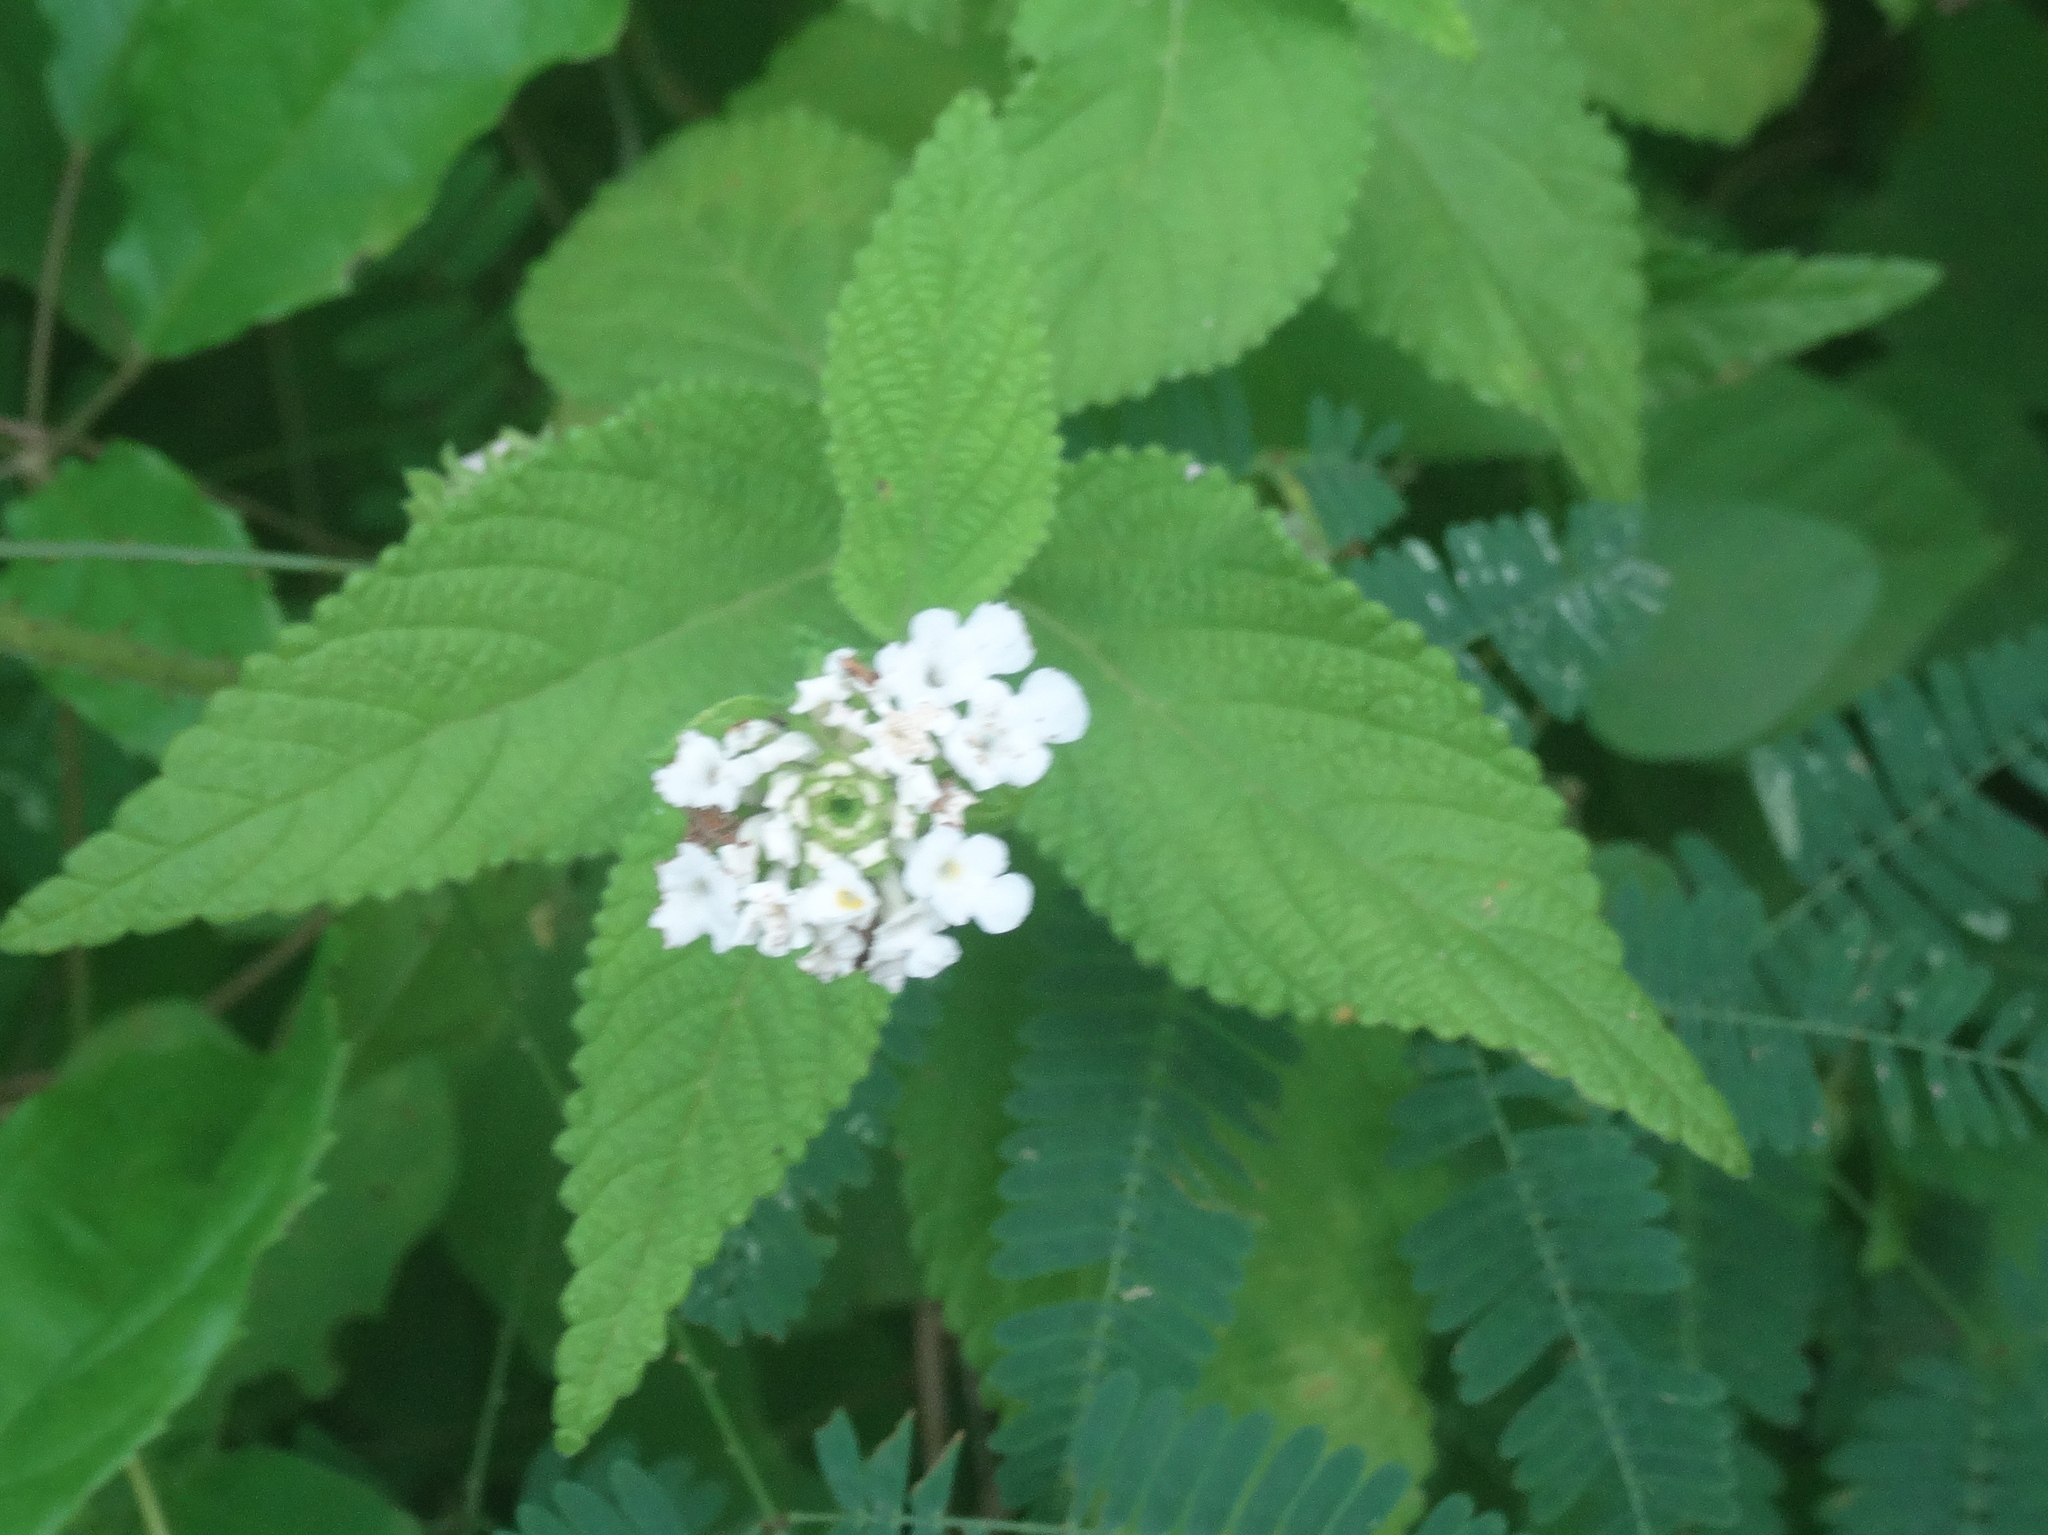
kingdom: Plantae
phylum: Tracheophyta
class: Magnoliopsida
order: Lamiales
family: Verbenaceae
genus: Lantana
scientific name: Lantana achyranthifolia
